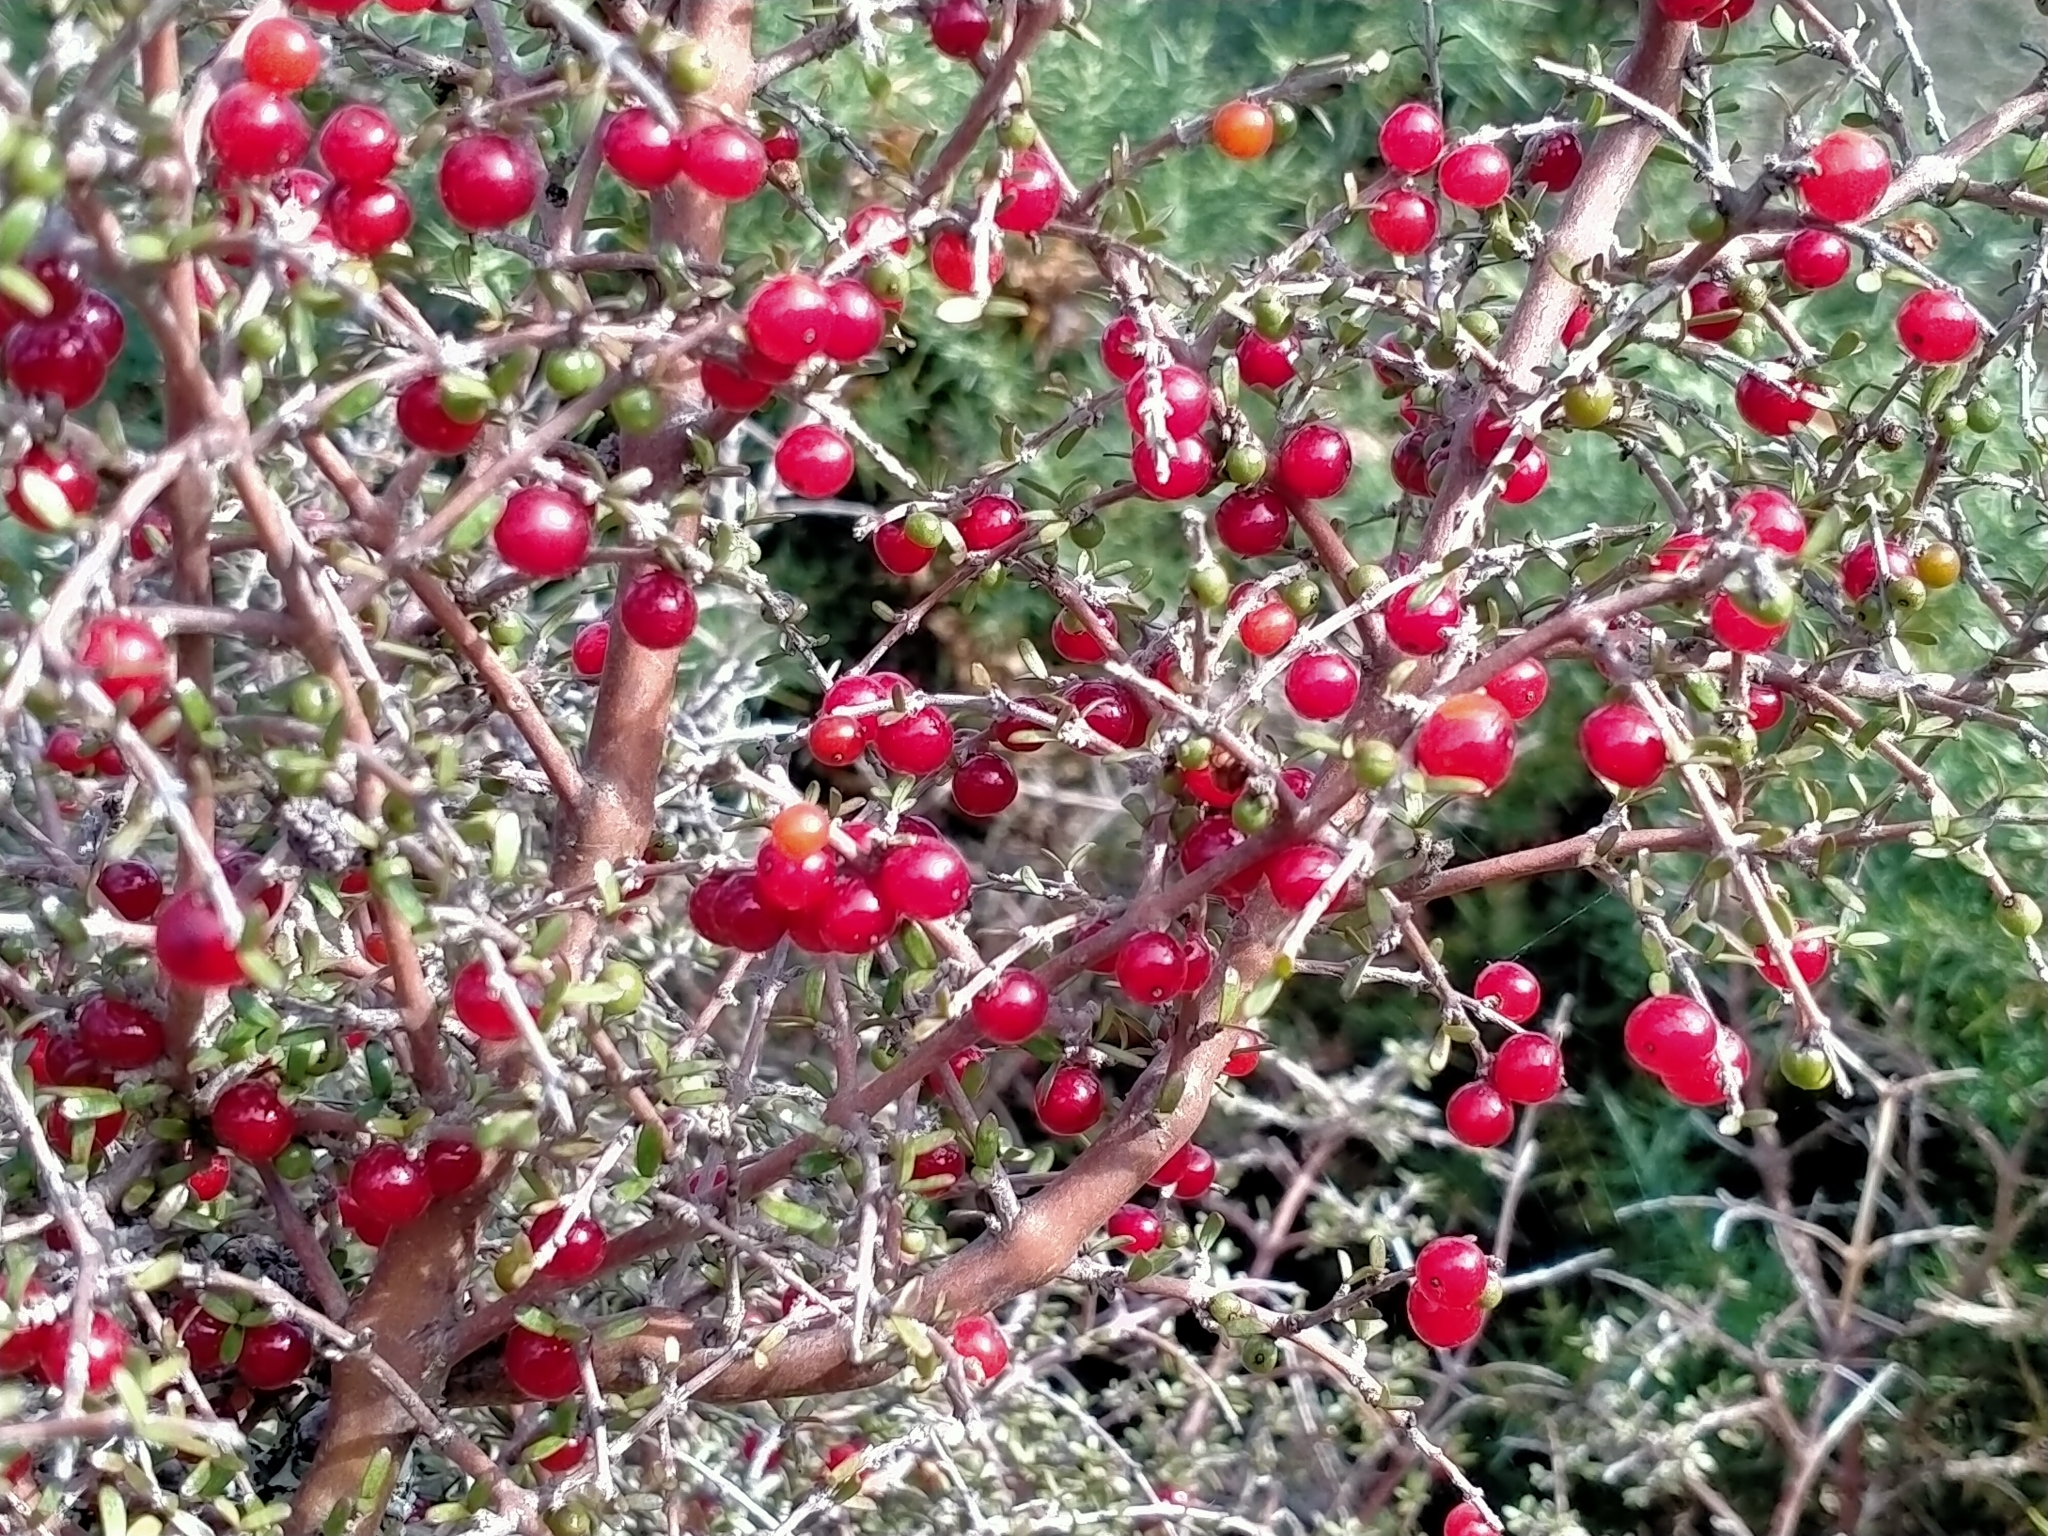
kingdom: Plantae
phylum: Tracheophyta
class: Magnoliopsida
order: Gentianales
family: Rubiaceae
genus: Coprosma
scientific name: Coprosma decurva
